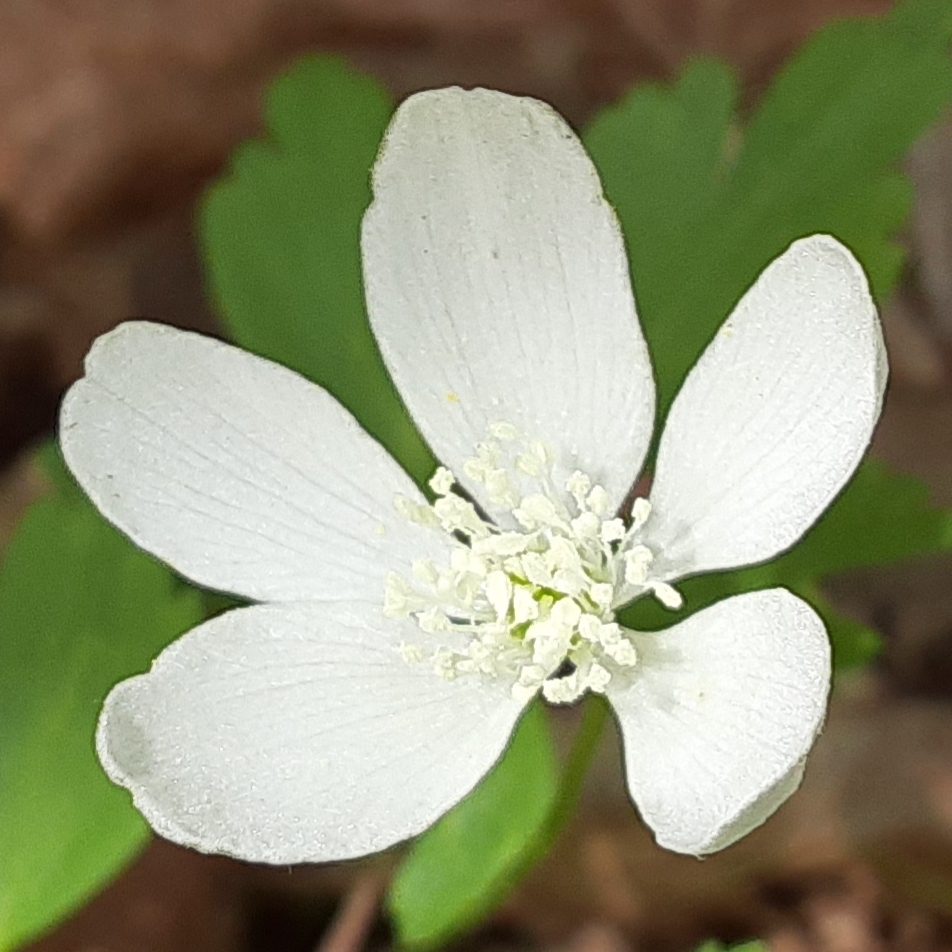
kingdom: Plantae
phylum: Tracheophyta
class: Magnoliopsida
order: Ranunculales
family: Ranunculaceae
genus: Anemone
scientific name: Anemone quinquefolia
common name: Wood anemone
